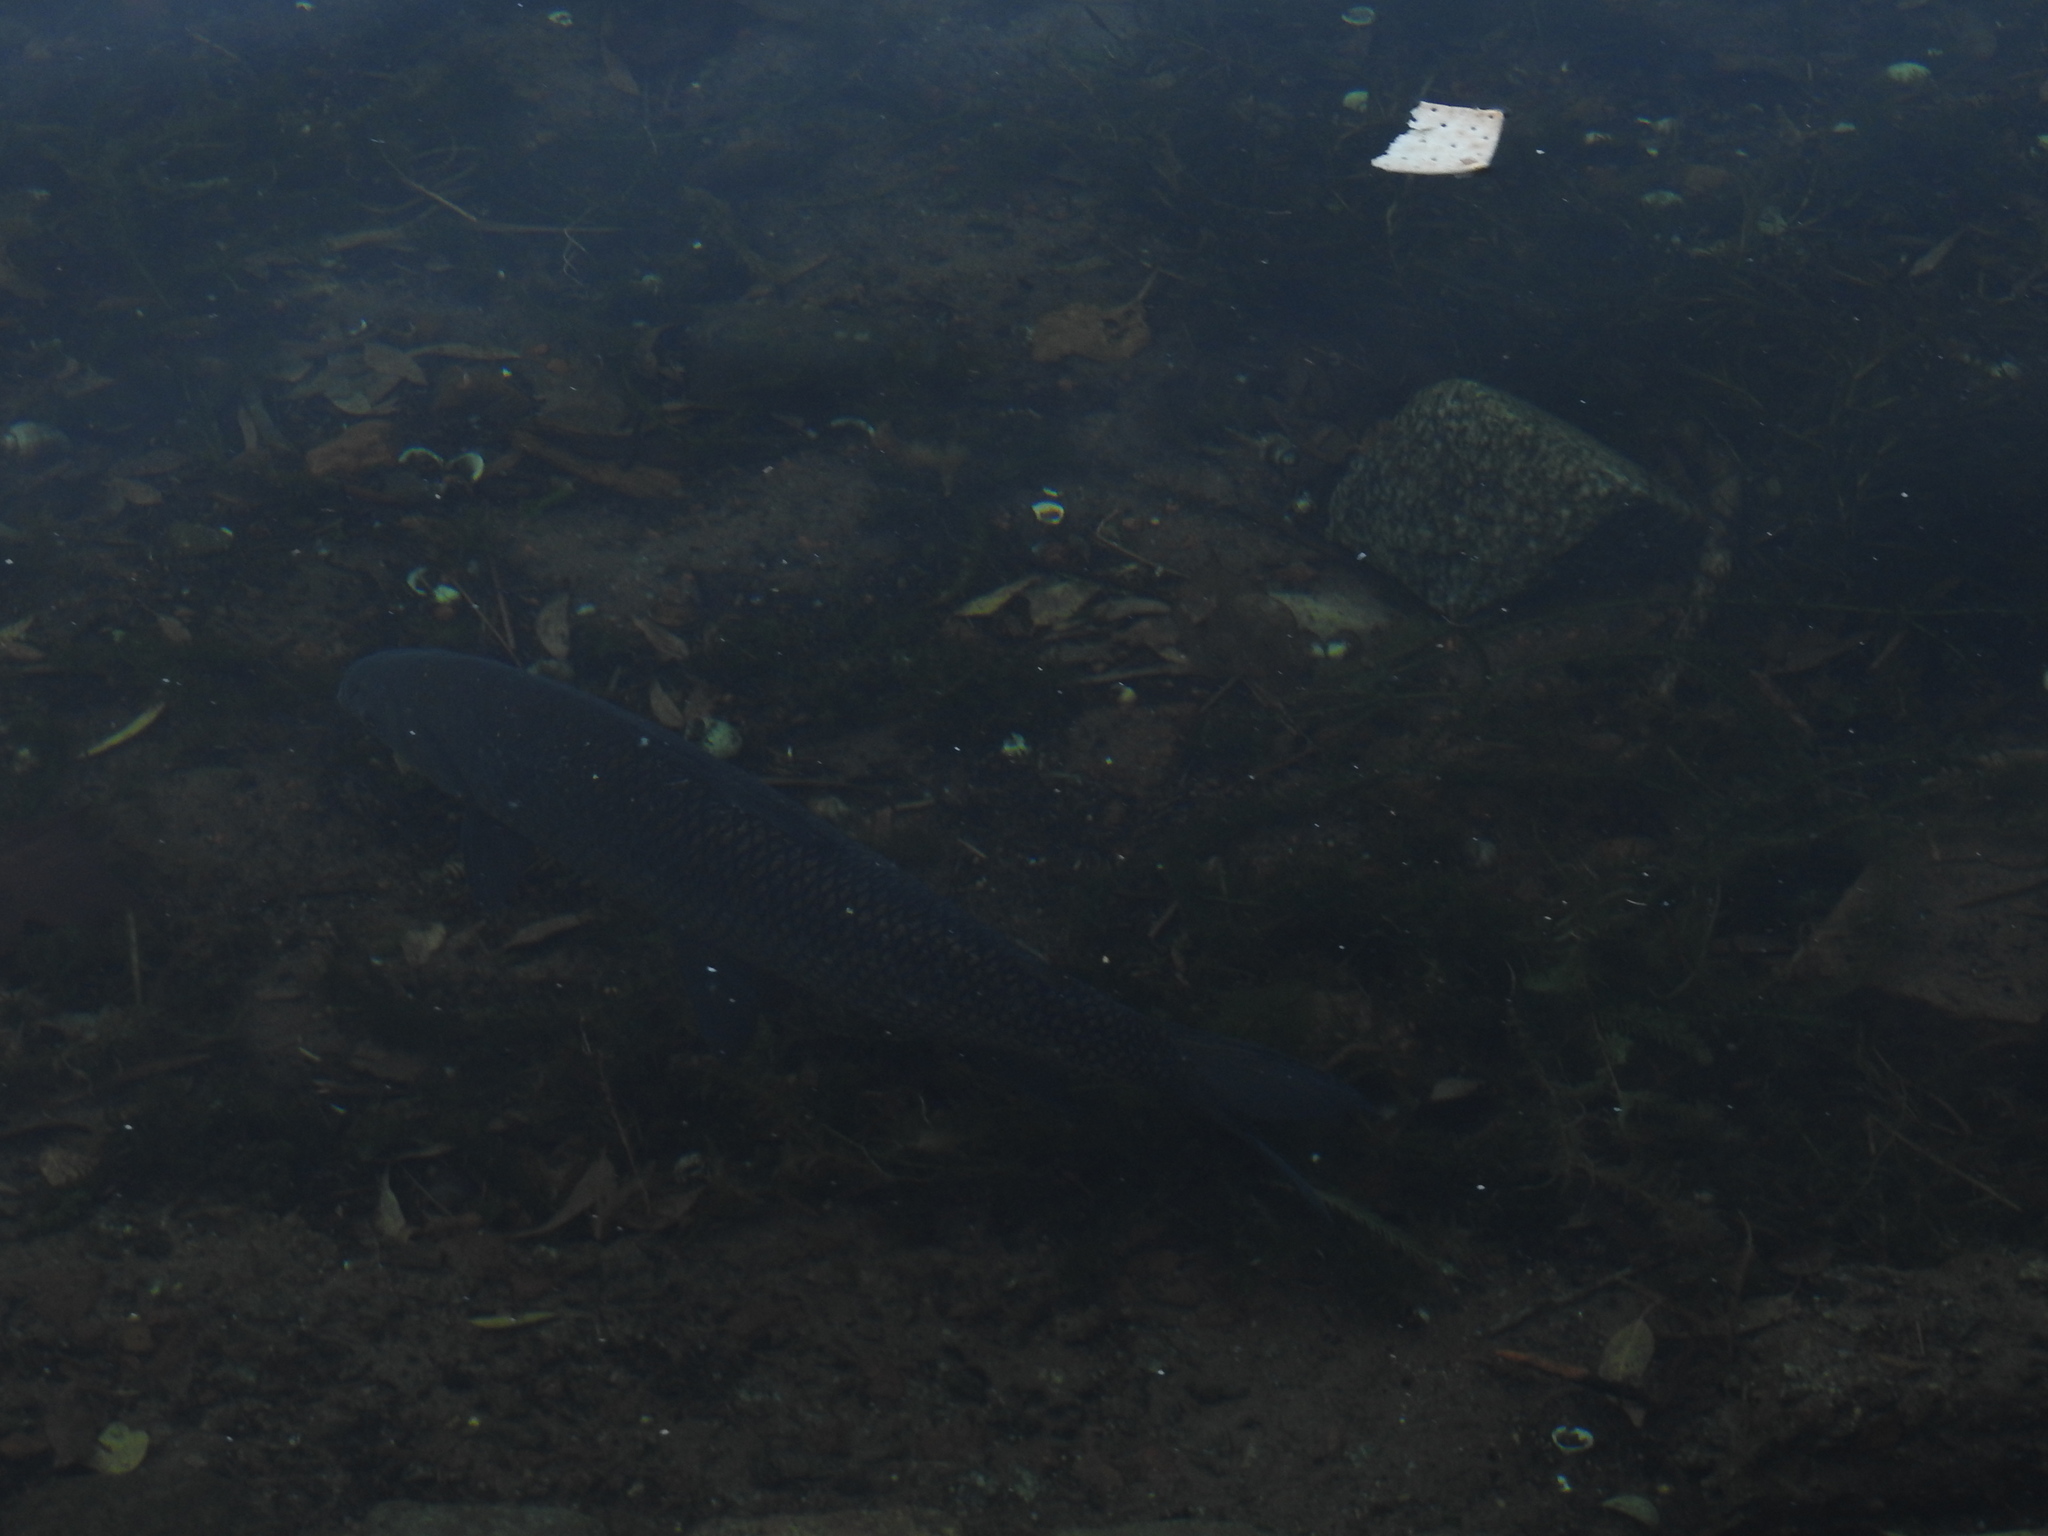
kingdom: Animalia
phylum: Chordata
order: Characiformes
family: Prochilodontidae
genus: Prochilodus
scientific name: Prochilodus lineatus
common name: Curimbata
